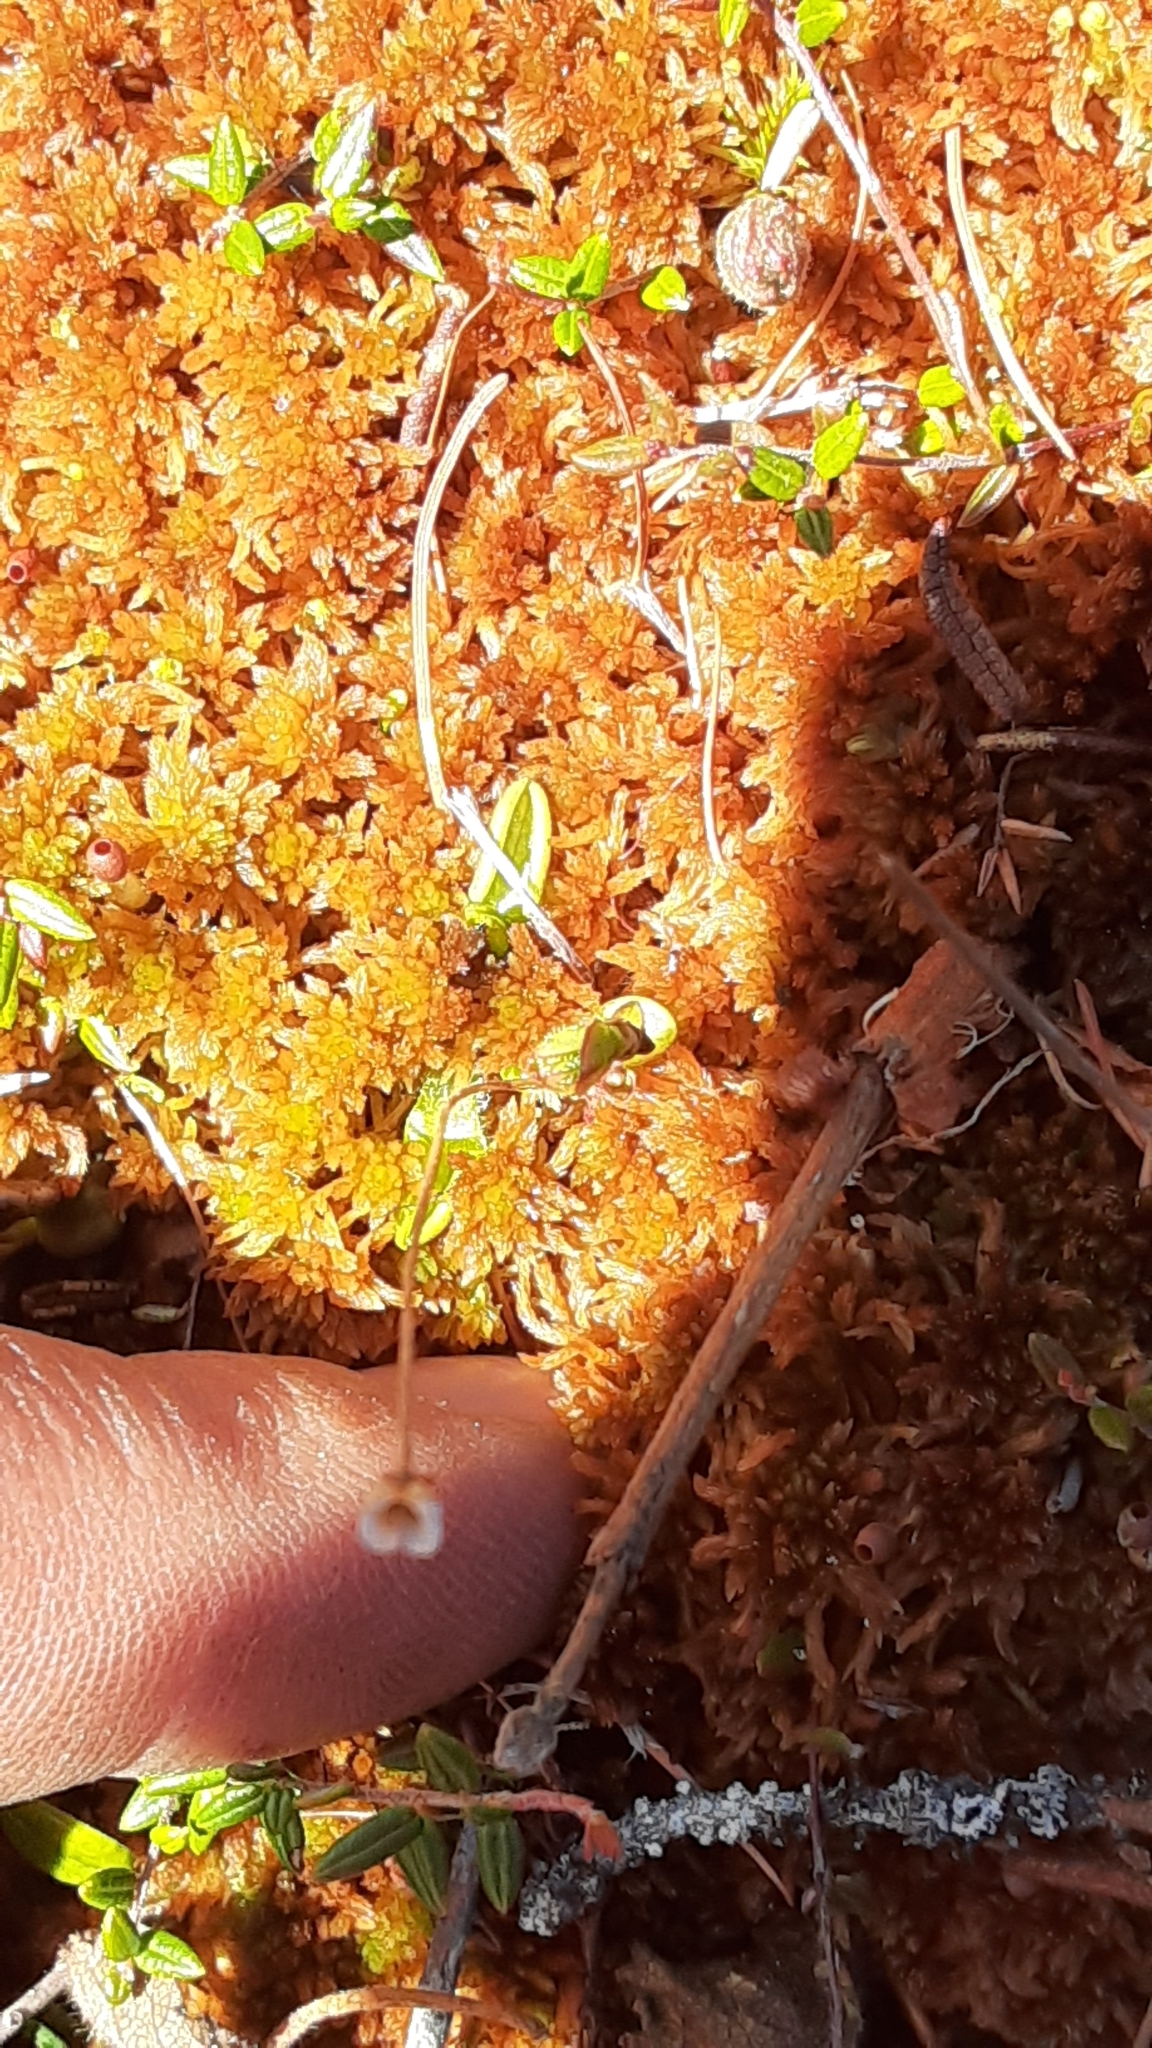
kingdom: Plantae
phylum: Tracheophyta
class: Magnoliopsida
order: Lamiales
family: Lentibulariaceae
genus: Pinguicula
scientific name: Pinguicula villosa
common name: Hairy butterwort
